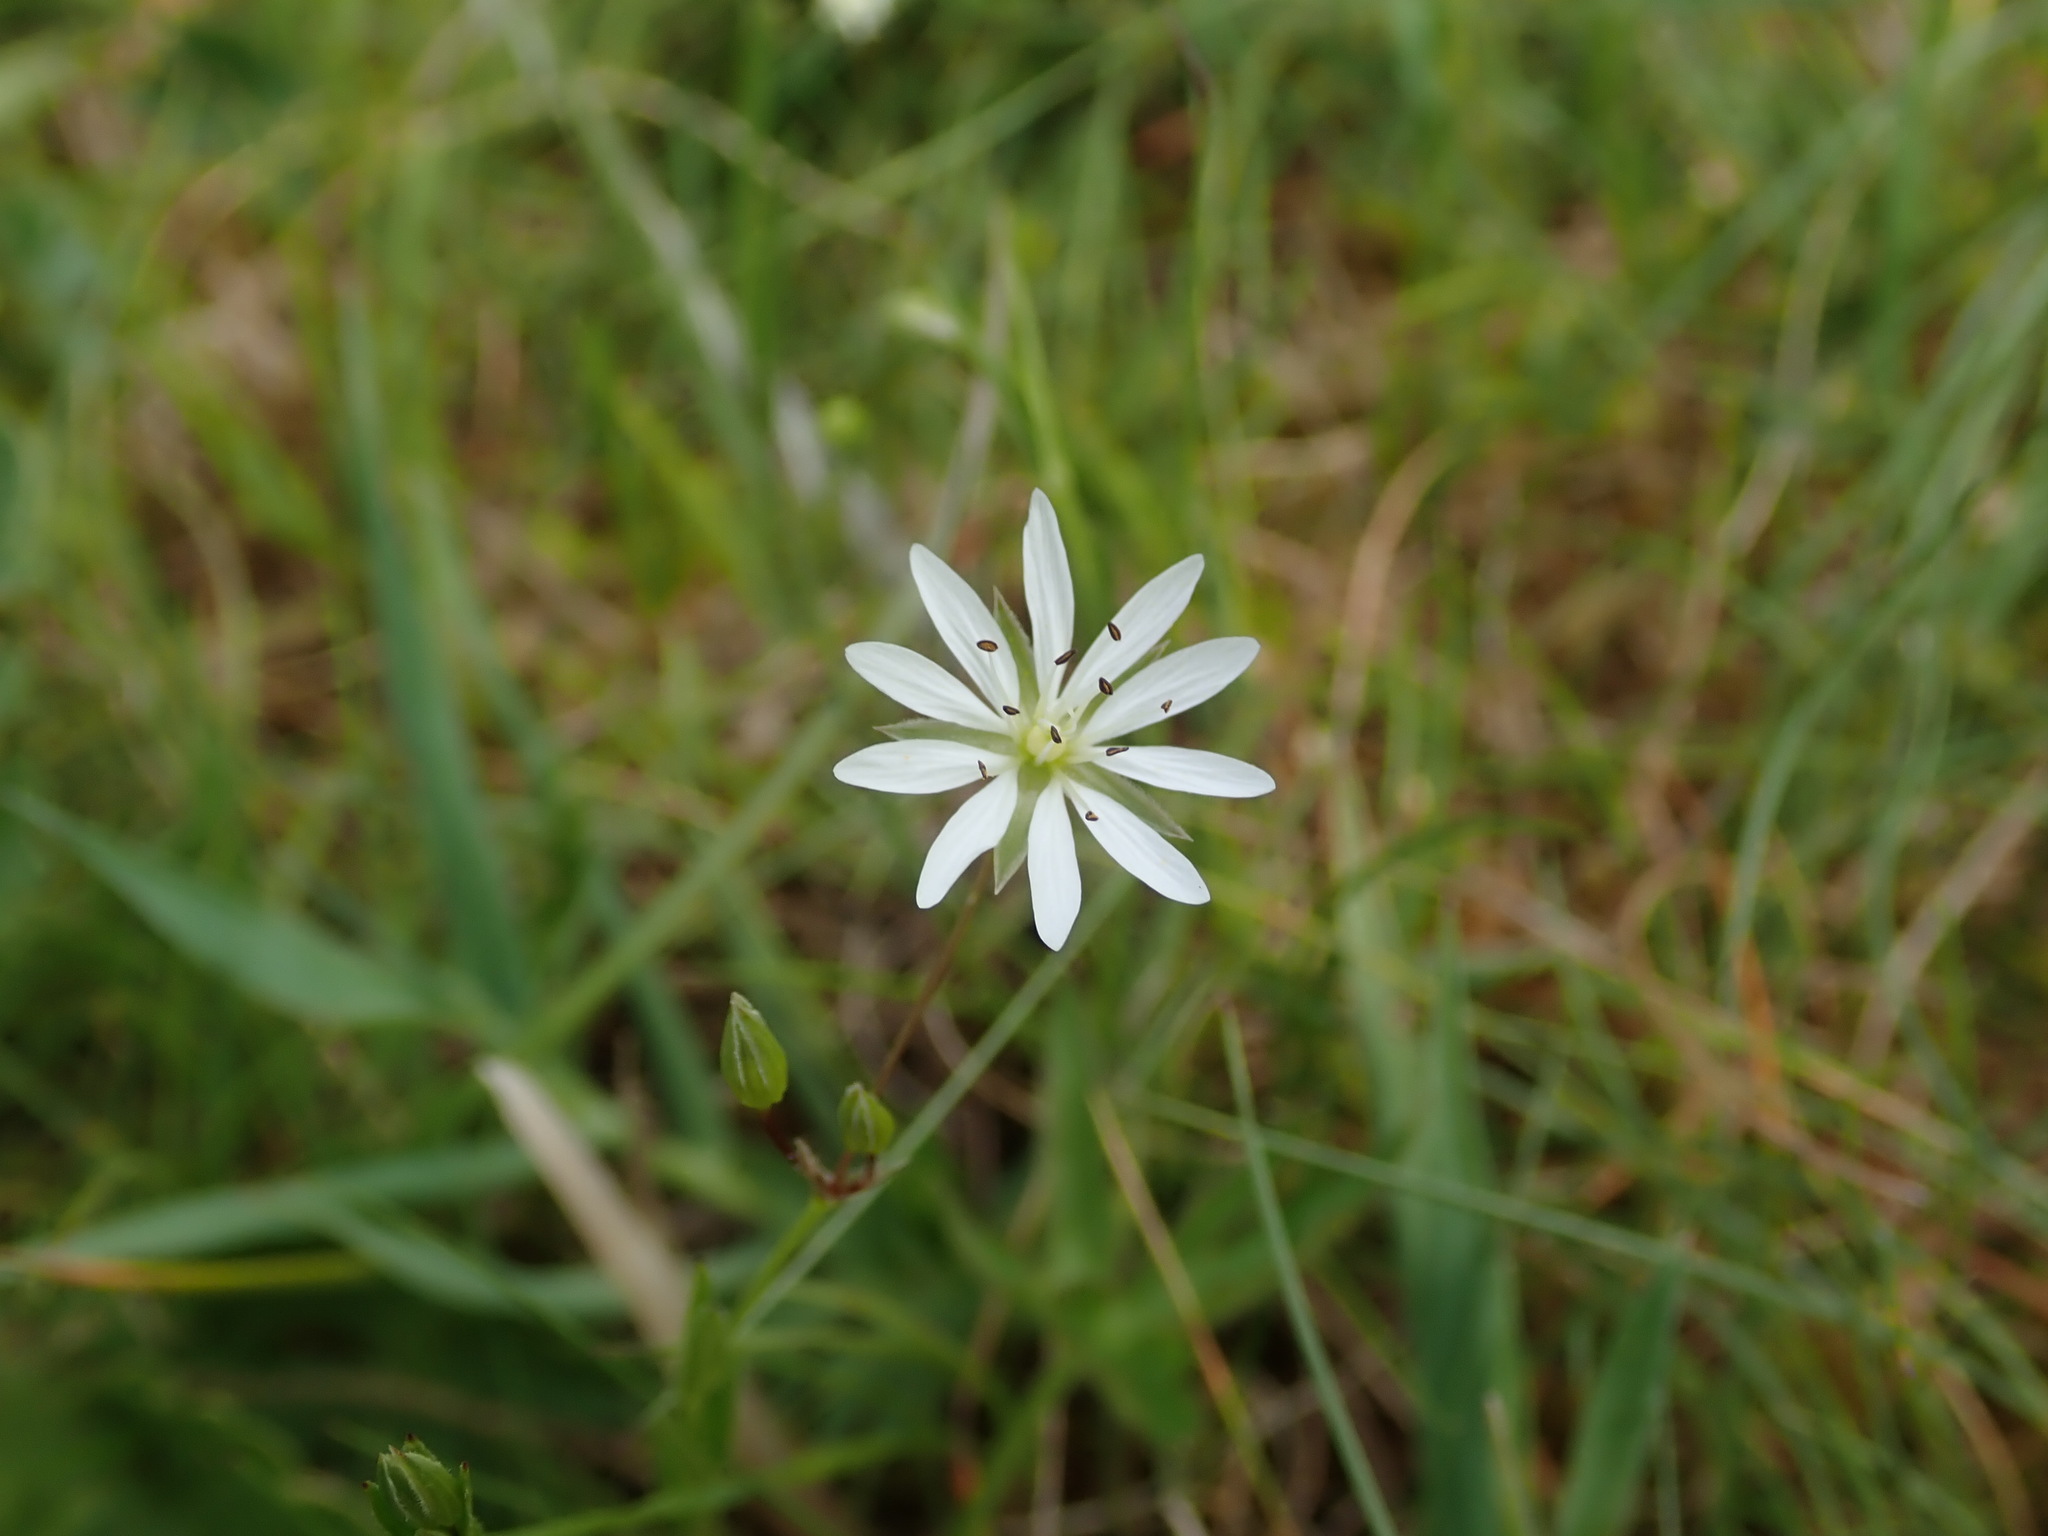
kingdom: Plantae
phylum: Tracheophyta
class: Magnoliopsida
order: Caryophyllales
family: Caryophyllaceae
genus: Stellaria
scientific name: Stellaria graminea
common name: Grass-like starwort
